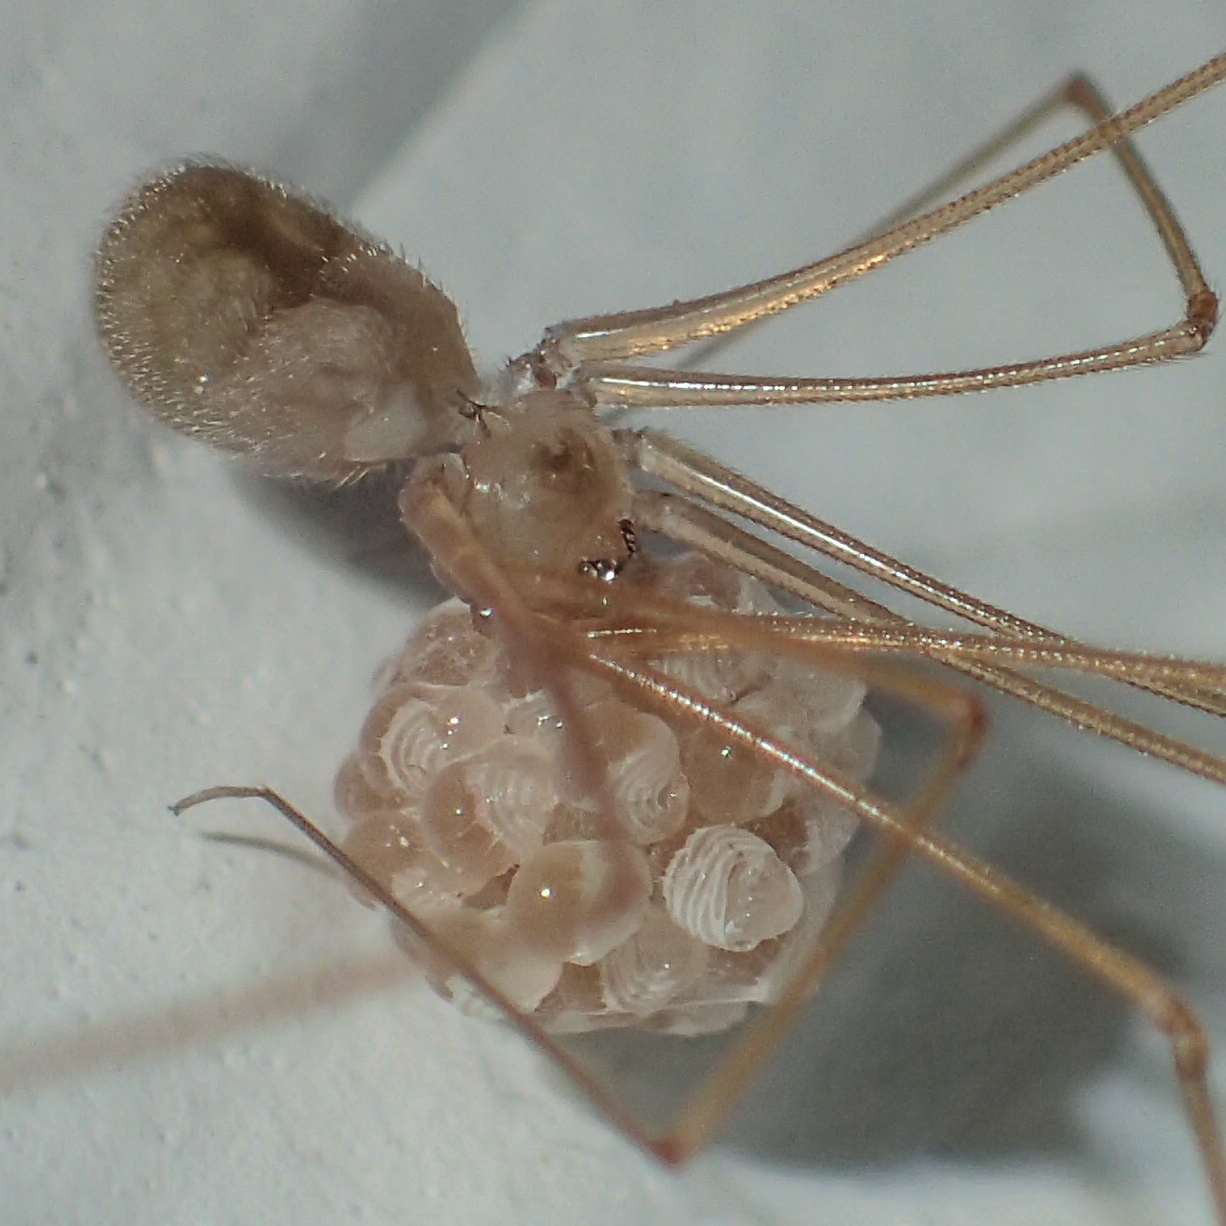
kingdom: Animalia
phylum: Arthropoda
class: Arachnida
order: Araneae
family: Pholcidae
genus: Micropholcus
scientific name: Micropholcus fauroti
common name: Cellar spider
